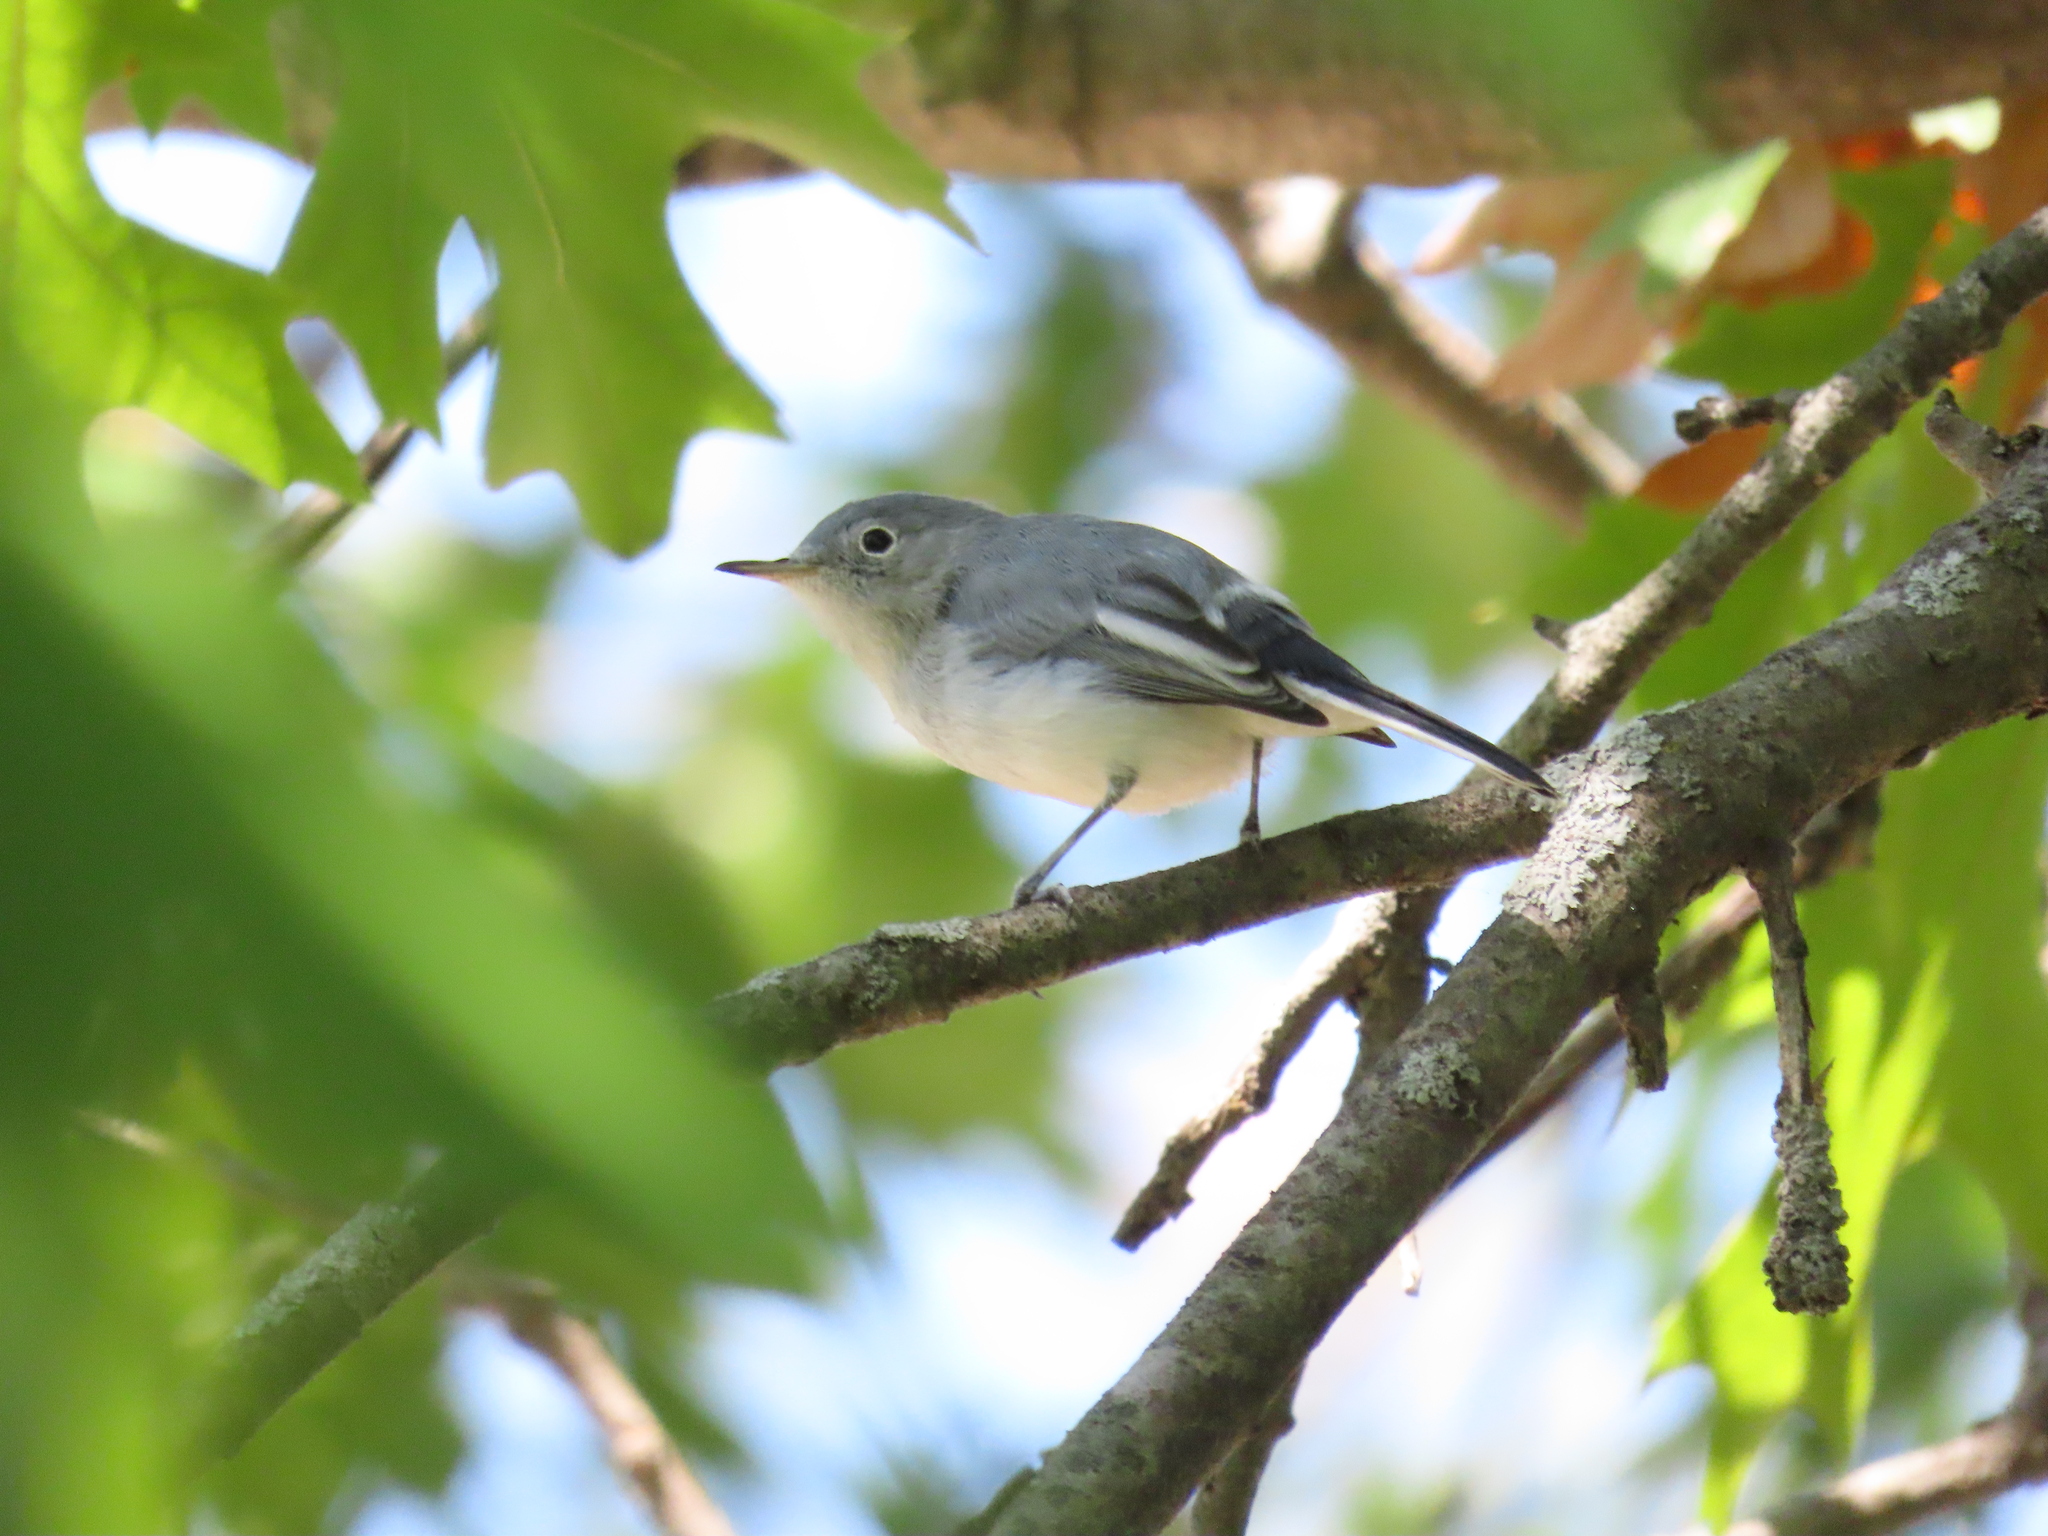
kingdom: Animalia
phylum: Chordata
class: Aves
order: Passeriformes
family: Polioptilidae
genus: Polioptila
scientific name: Polioptila caerulea
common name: Blue-gray gnatcatcher
